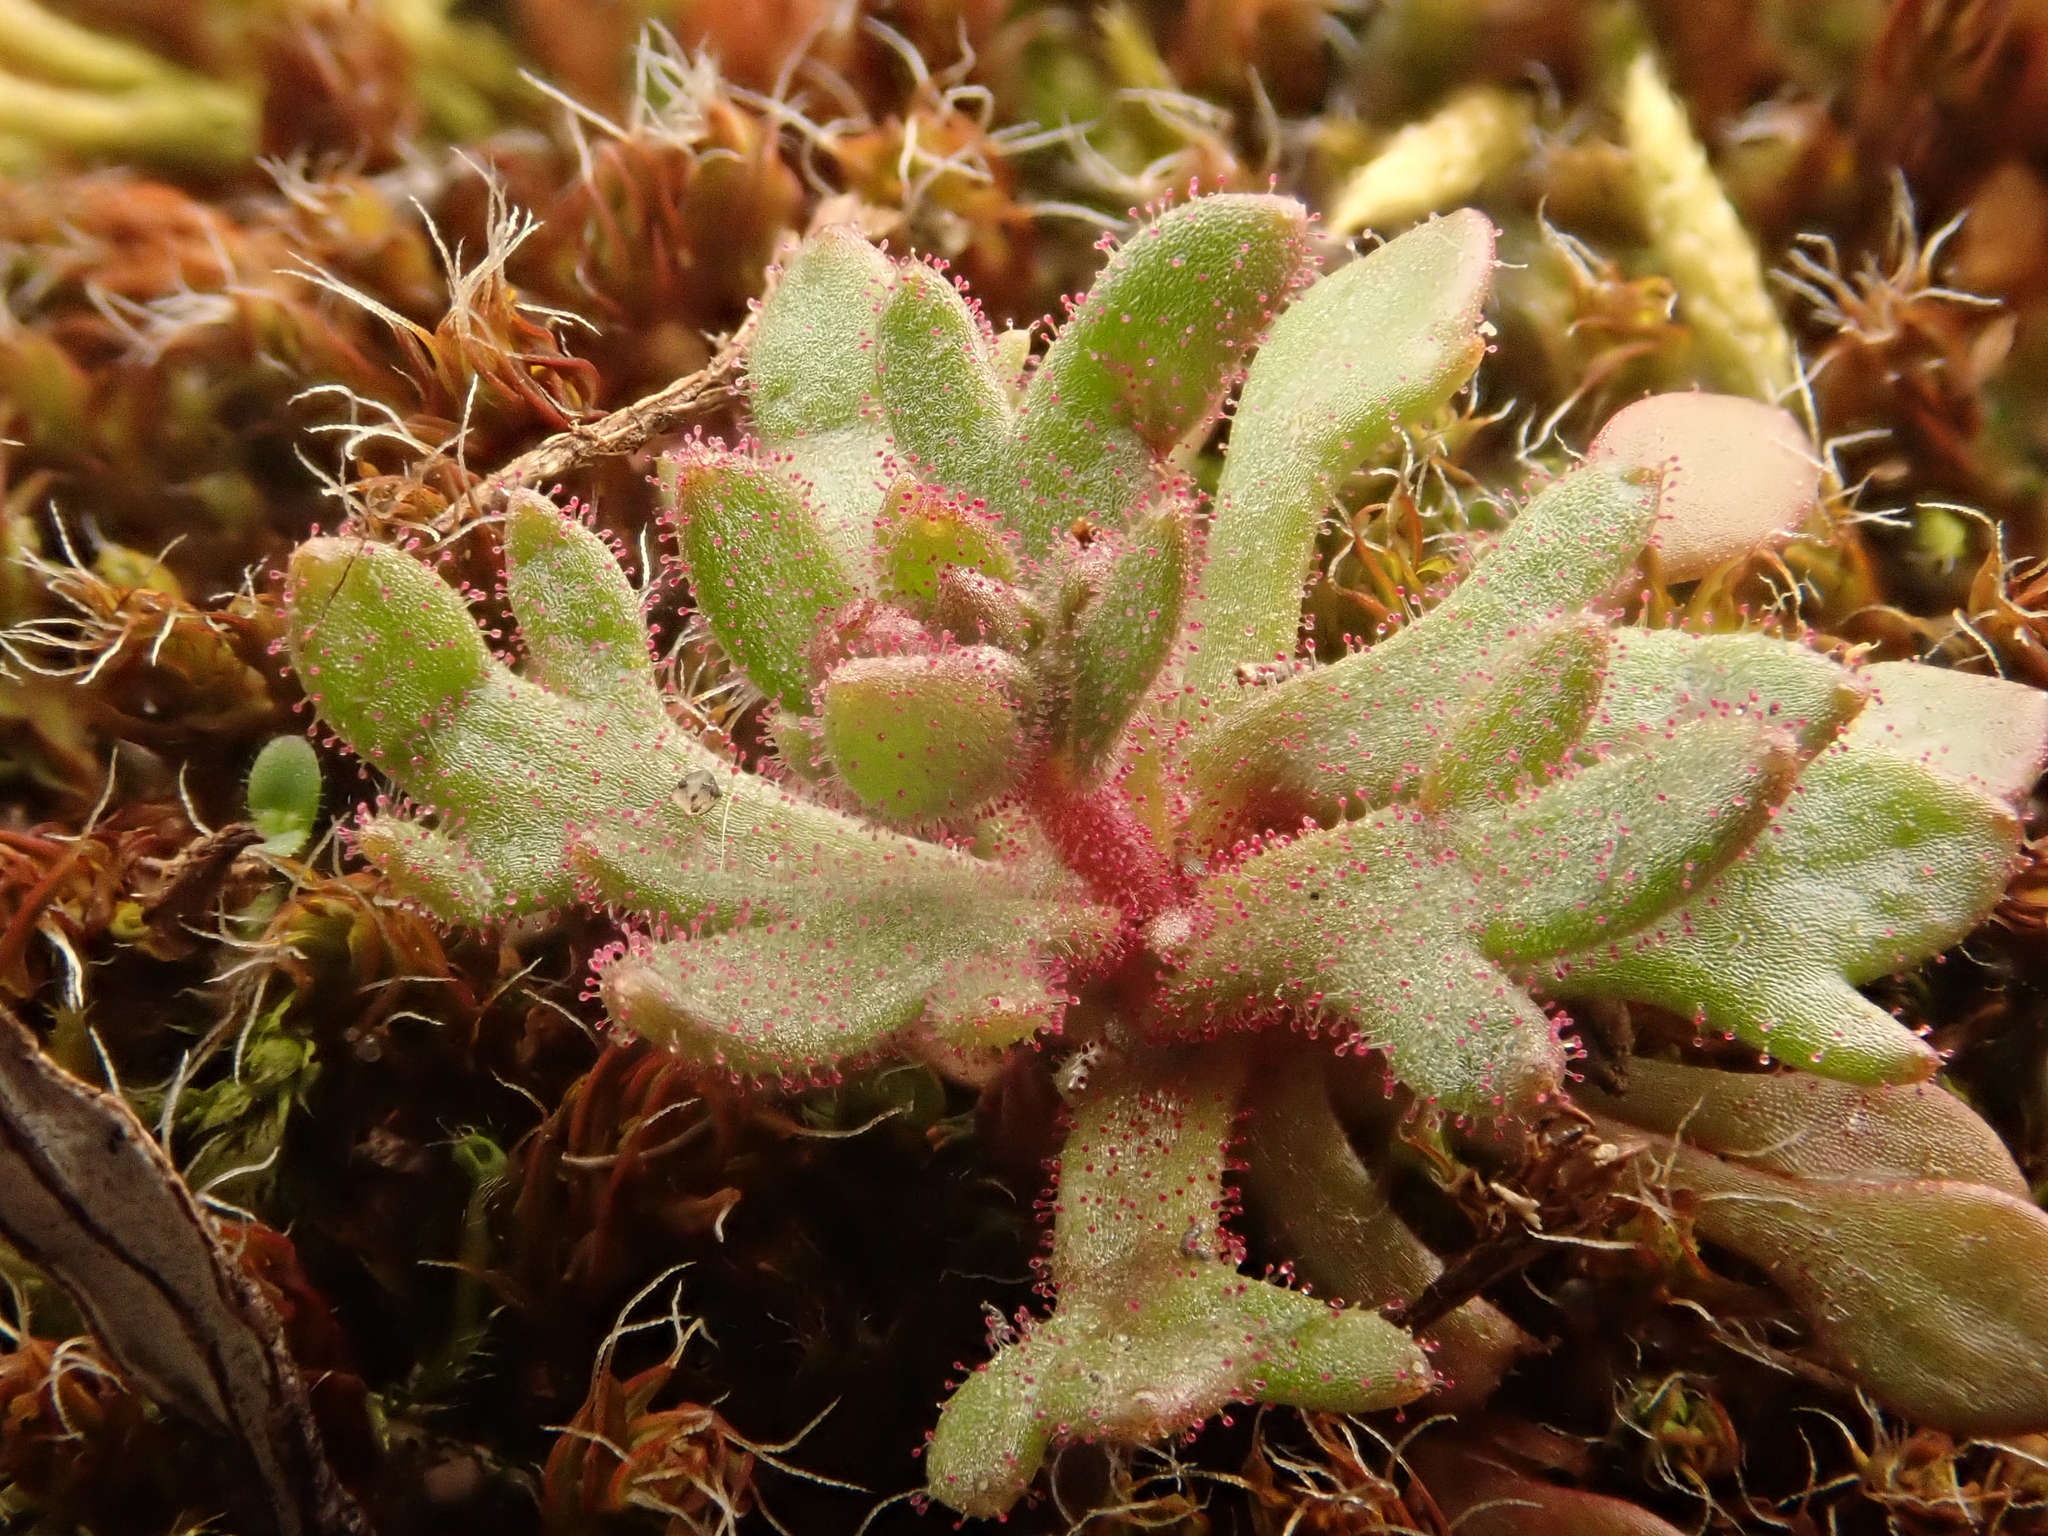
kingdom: Plantae
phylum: Tracheophyta
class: Magnoliopsida
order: Saxifragales
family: Saxifragaceae
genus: Saxifraga
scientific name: Saxifraga tridactylites
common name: Rue-leaved saxifrage
